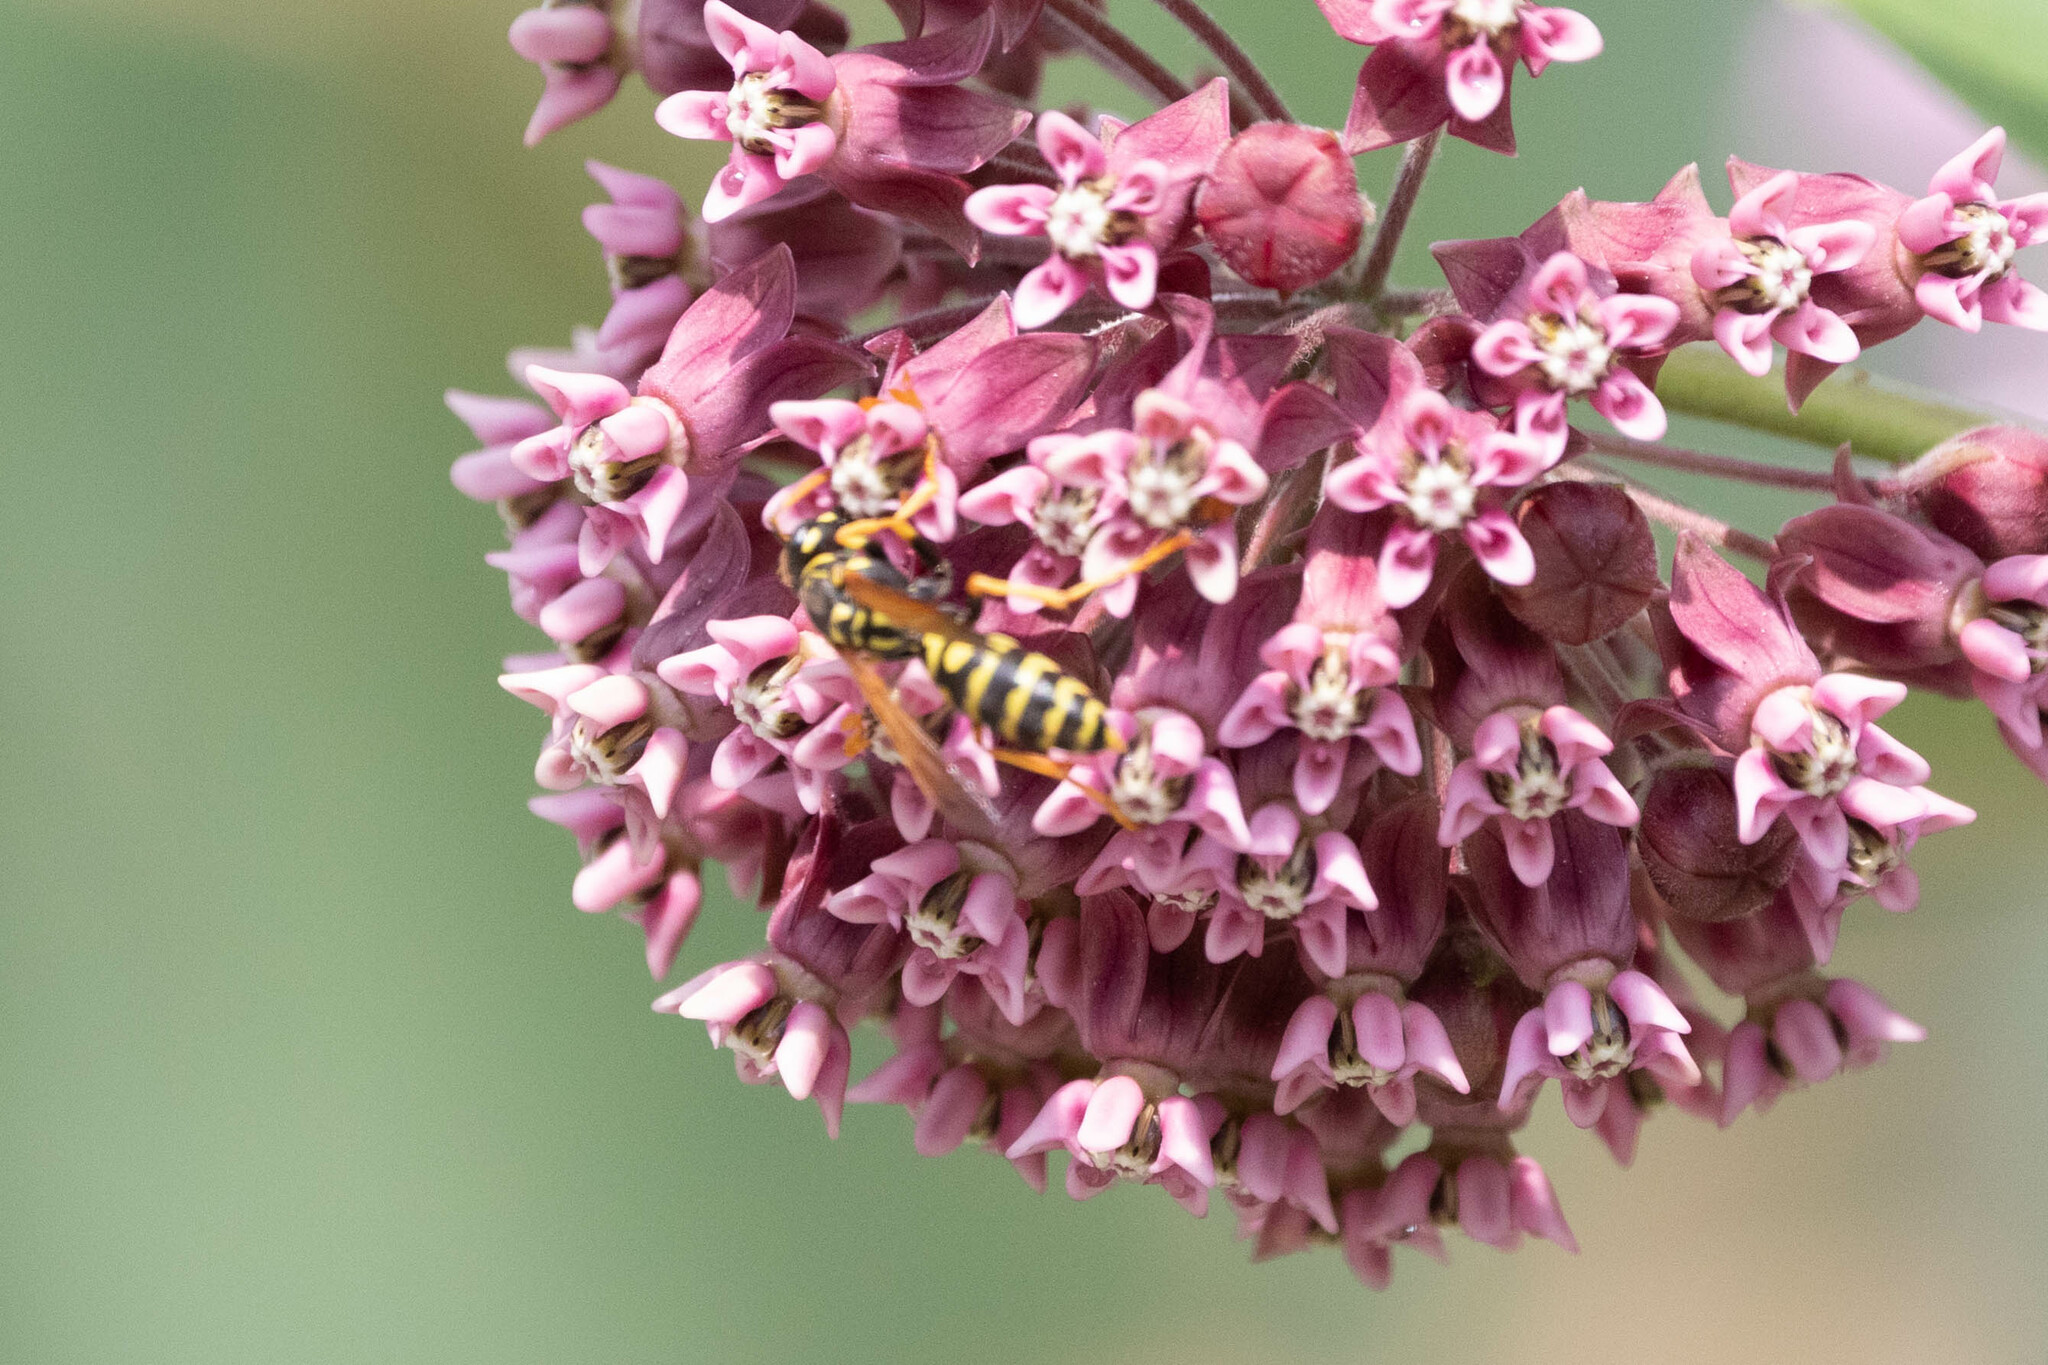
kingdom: Animalia
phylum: Arthropoda
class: Insecta
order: Hymenoptera
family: Eumenidae
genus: Polistes
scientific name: Polistes dominula
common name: Paper wasp
